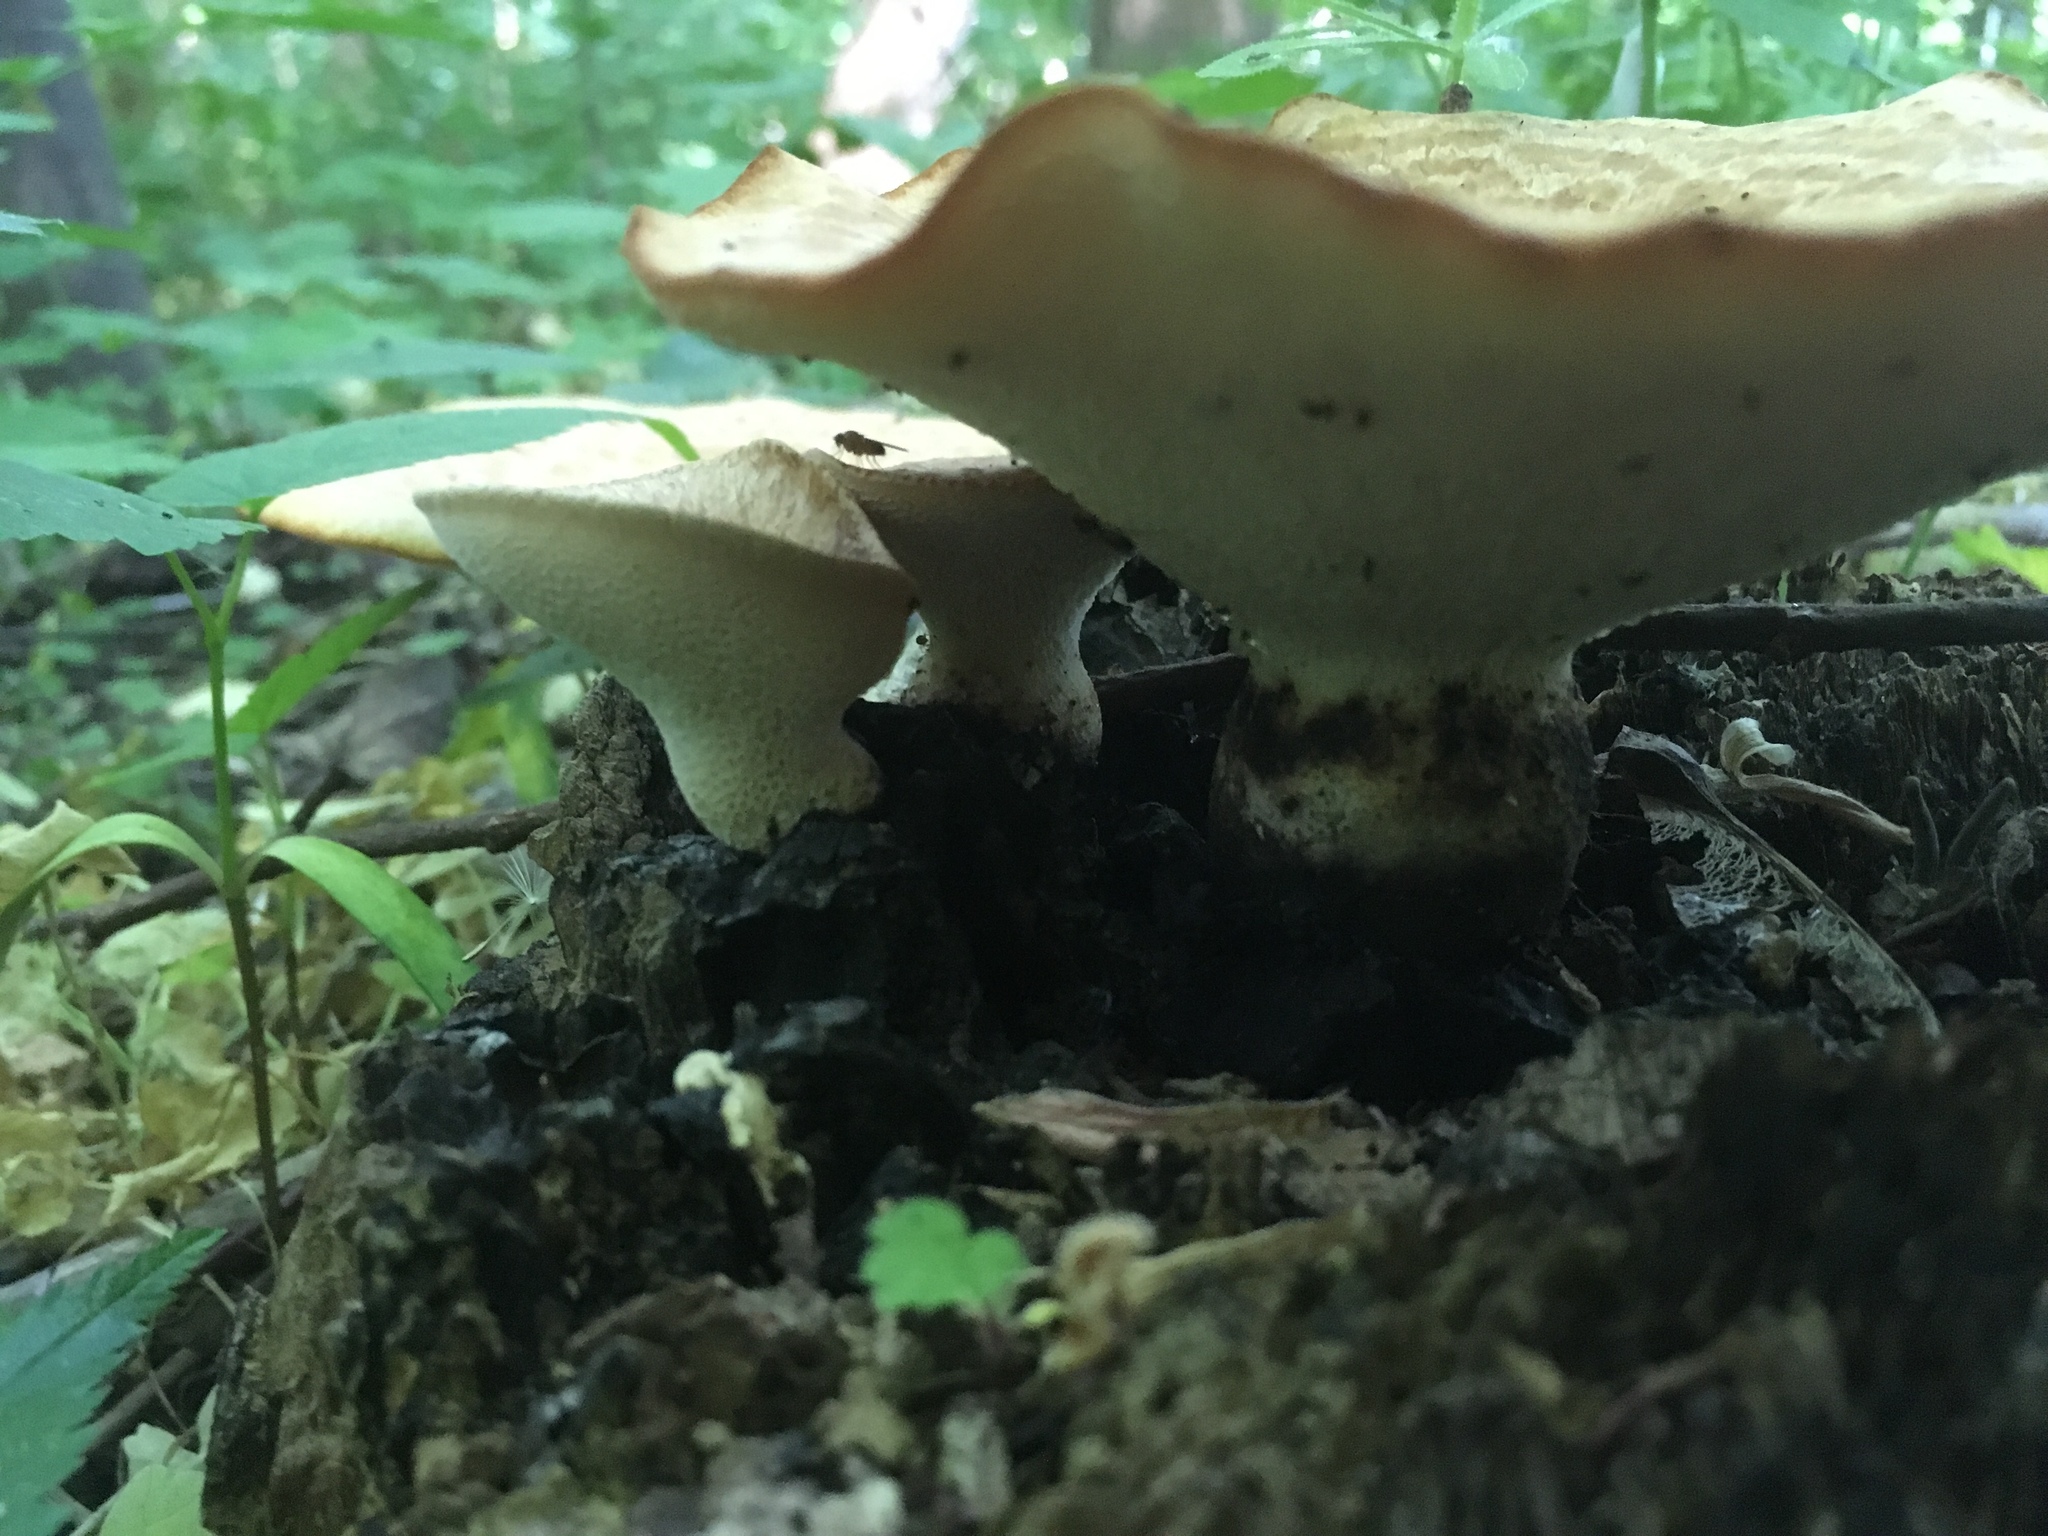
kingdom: Fungi
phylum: Basidiomycota
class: Agaricomycetes
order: Polyporales
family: Polyporaceae
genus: Cerioporus
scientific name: Cerioporus squamosus
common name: Dryad's saddle
